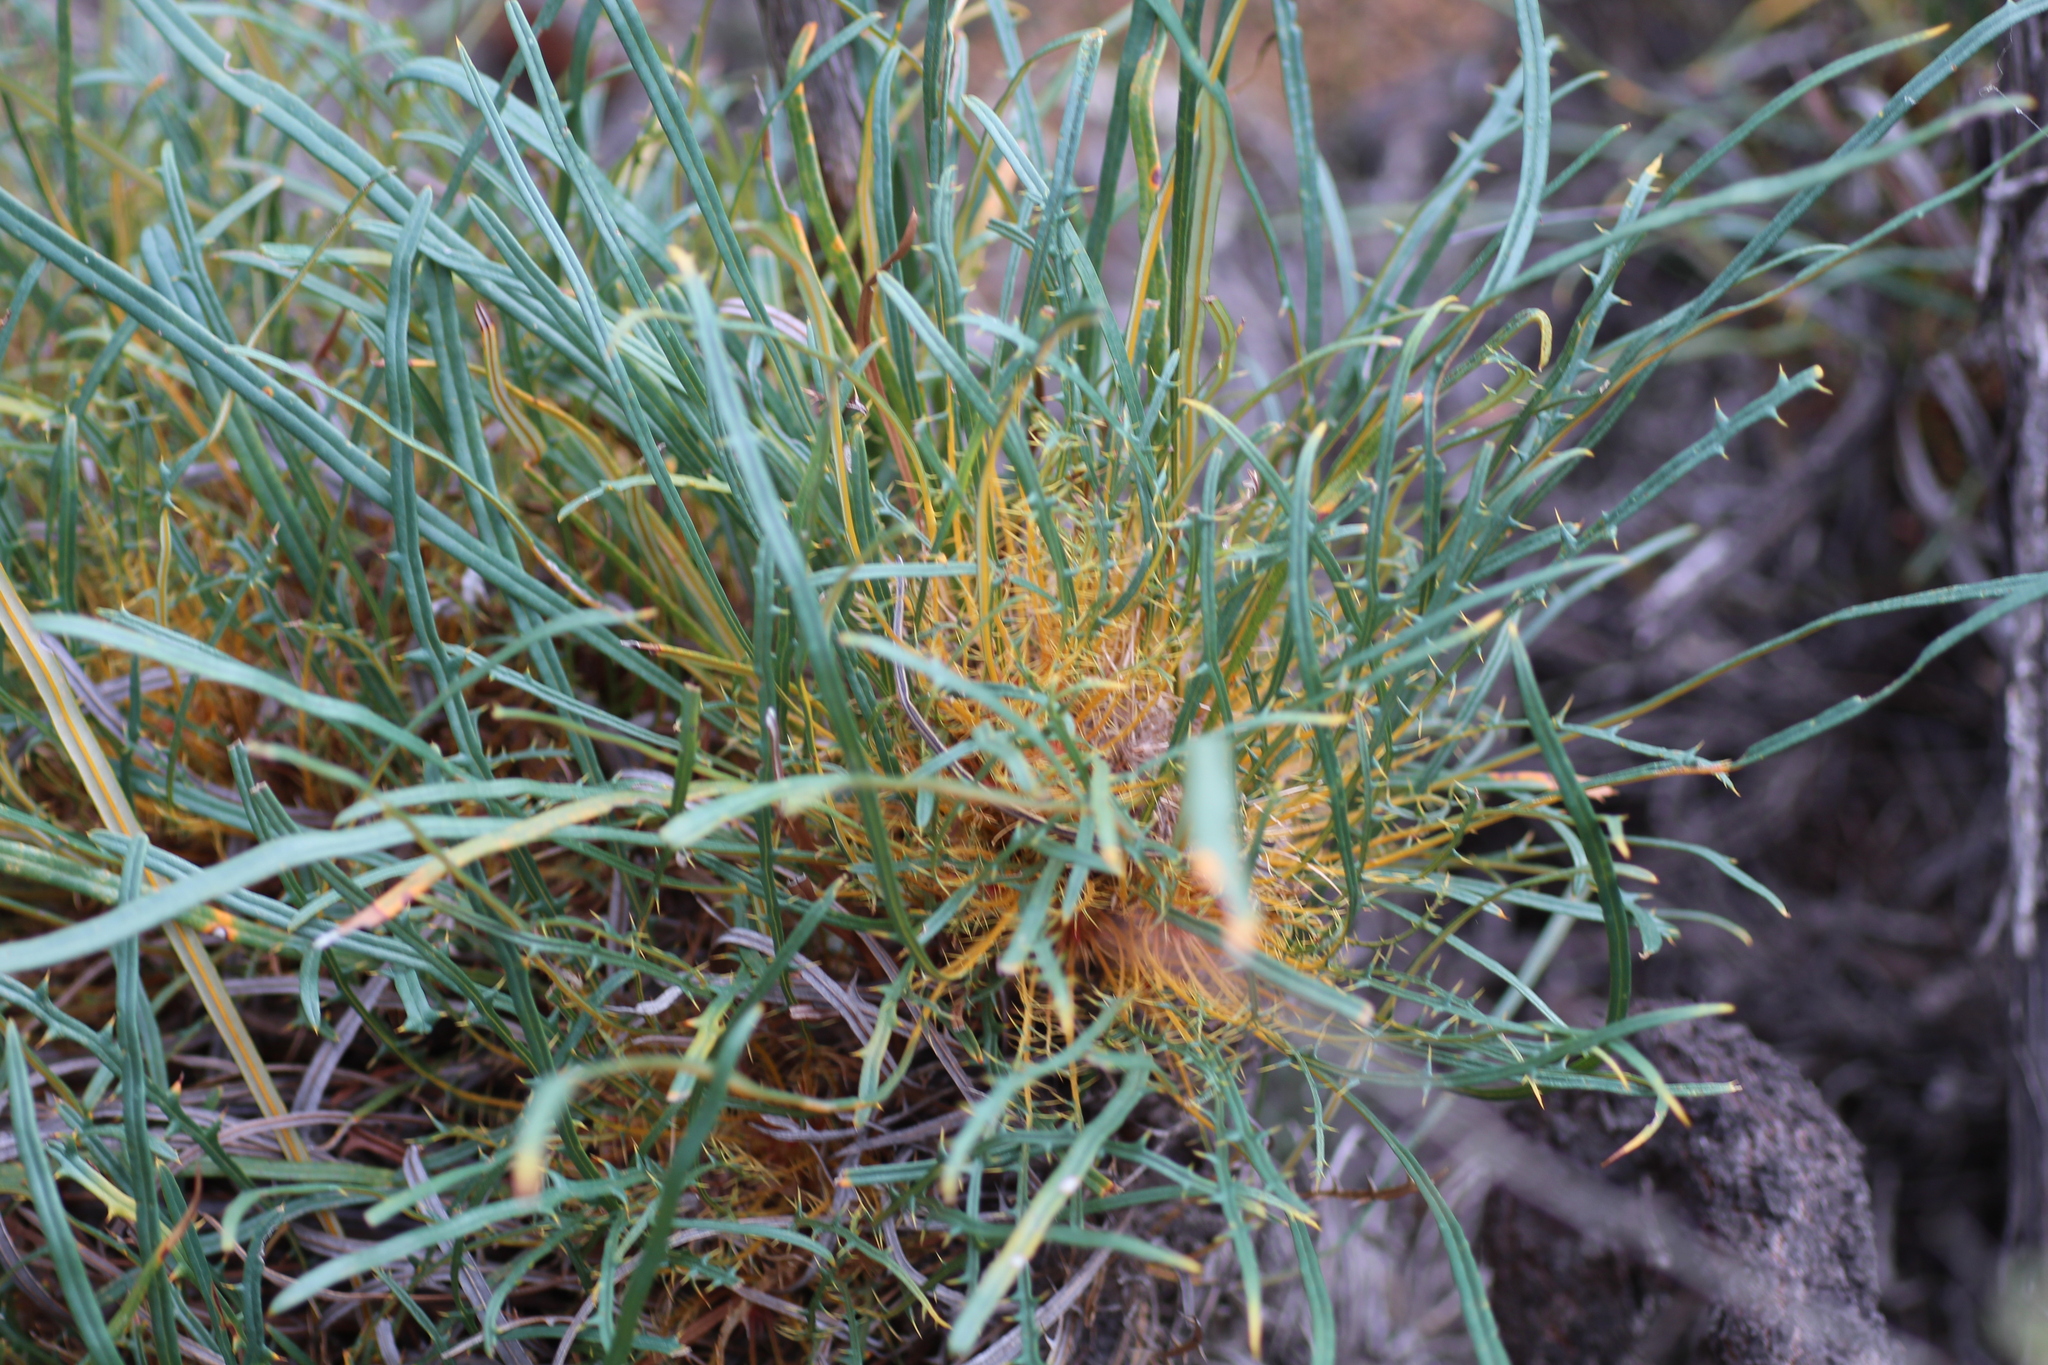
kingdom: Plantae
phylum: Tracheophyta
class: Magnoliopsida
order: Proteales
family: Proteaceae
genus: Banksia
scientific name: Banksia subpinnatifida
